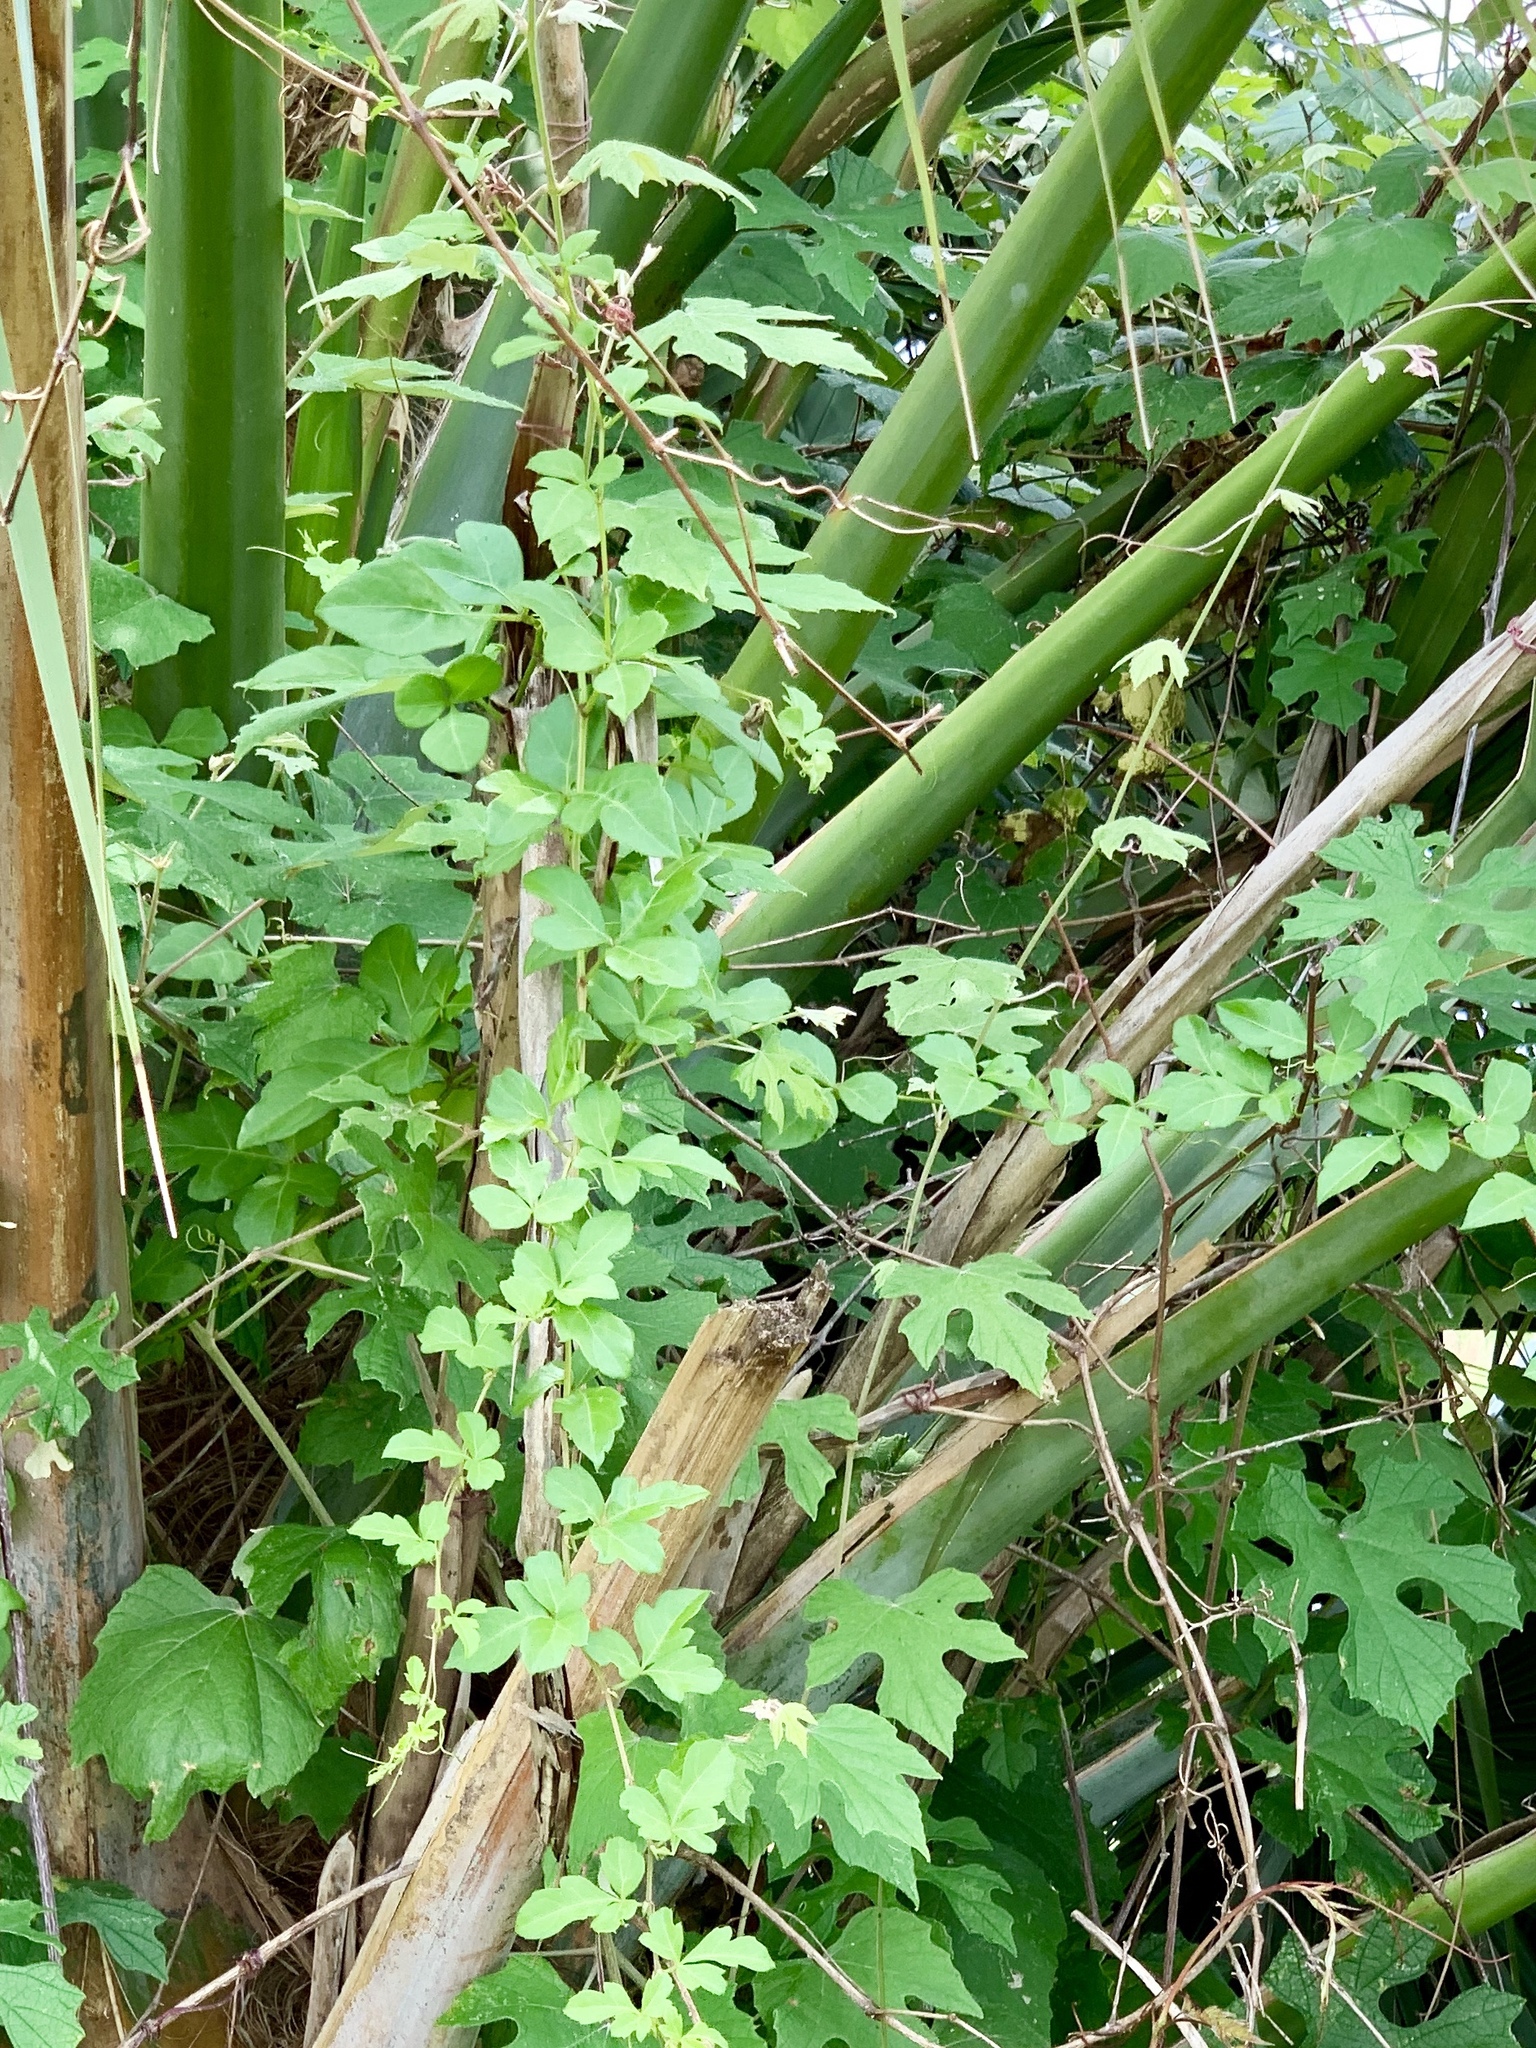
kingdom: Plantae
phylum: Tracheophyta
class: Magnoliopsida
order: Vitales
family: Vitaceae
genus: Vitis
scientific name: Vitis mustangensis
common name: Mustang grape
